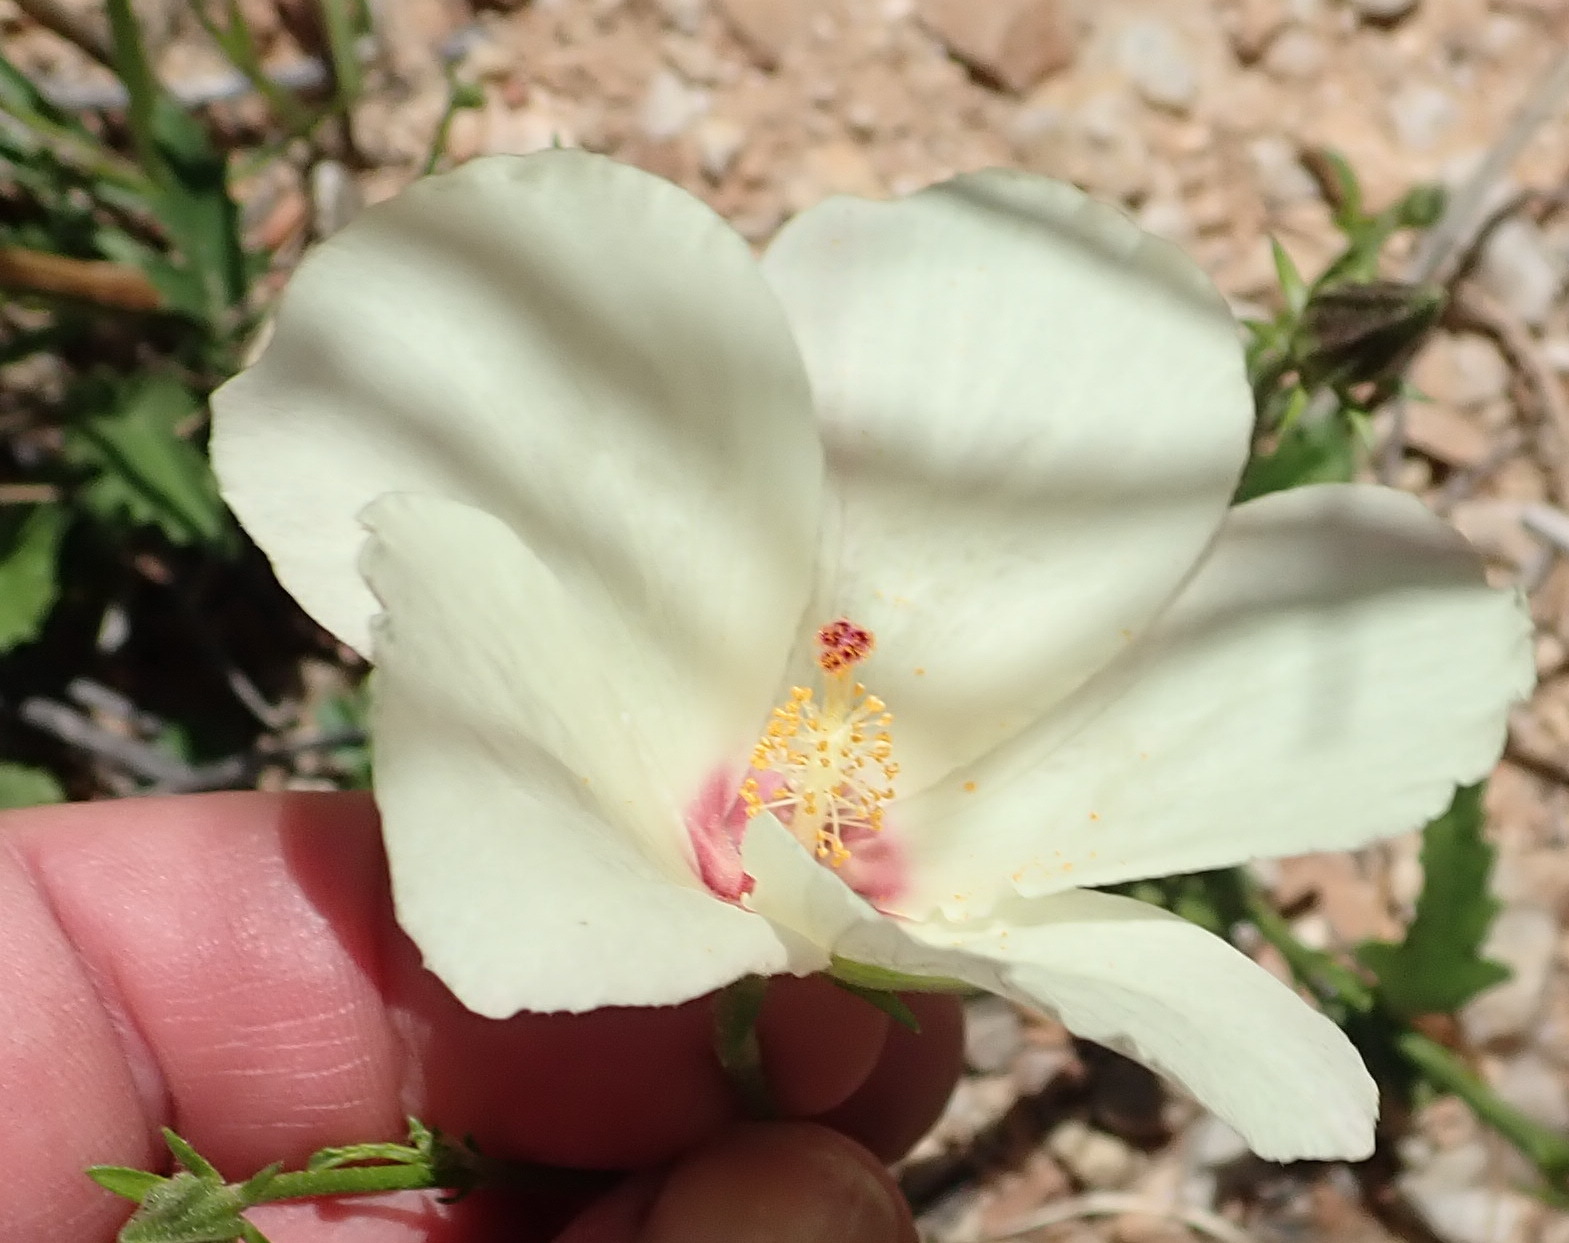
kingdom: Plantae
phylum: Tracheophyta
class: Magnoliopsida
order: Malvales
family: Malvaceae
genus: Hibiscus
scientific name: Hibiscus pusillus
